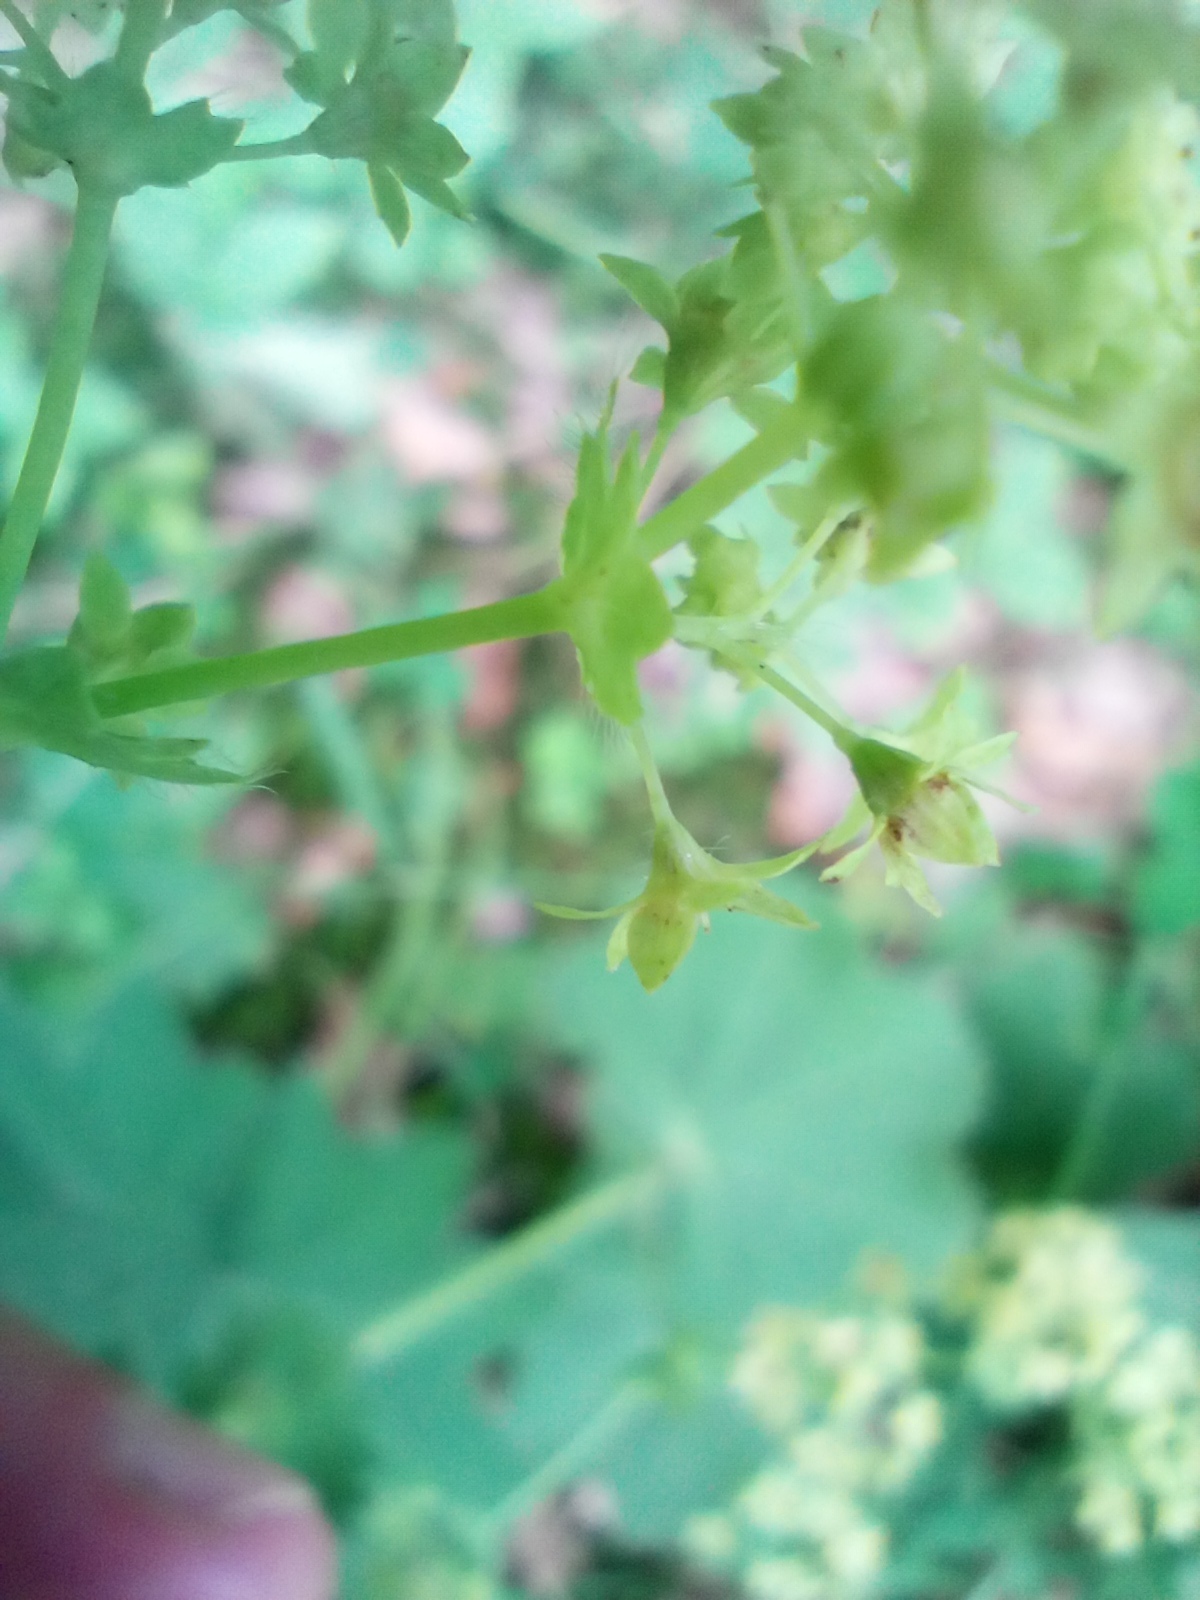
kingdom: Plantae
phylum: Tracheophyta
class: Magnoliopsida
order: Rosales
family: Rosaceae
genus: Alchemilla
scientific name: Alchemilla mollis
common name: Lady's-mantle
